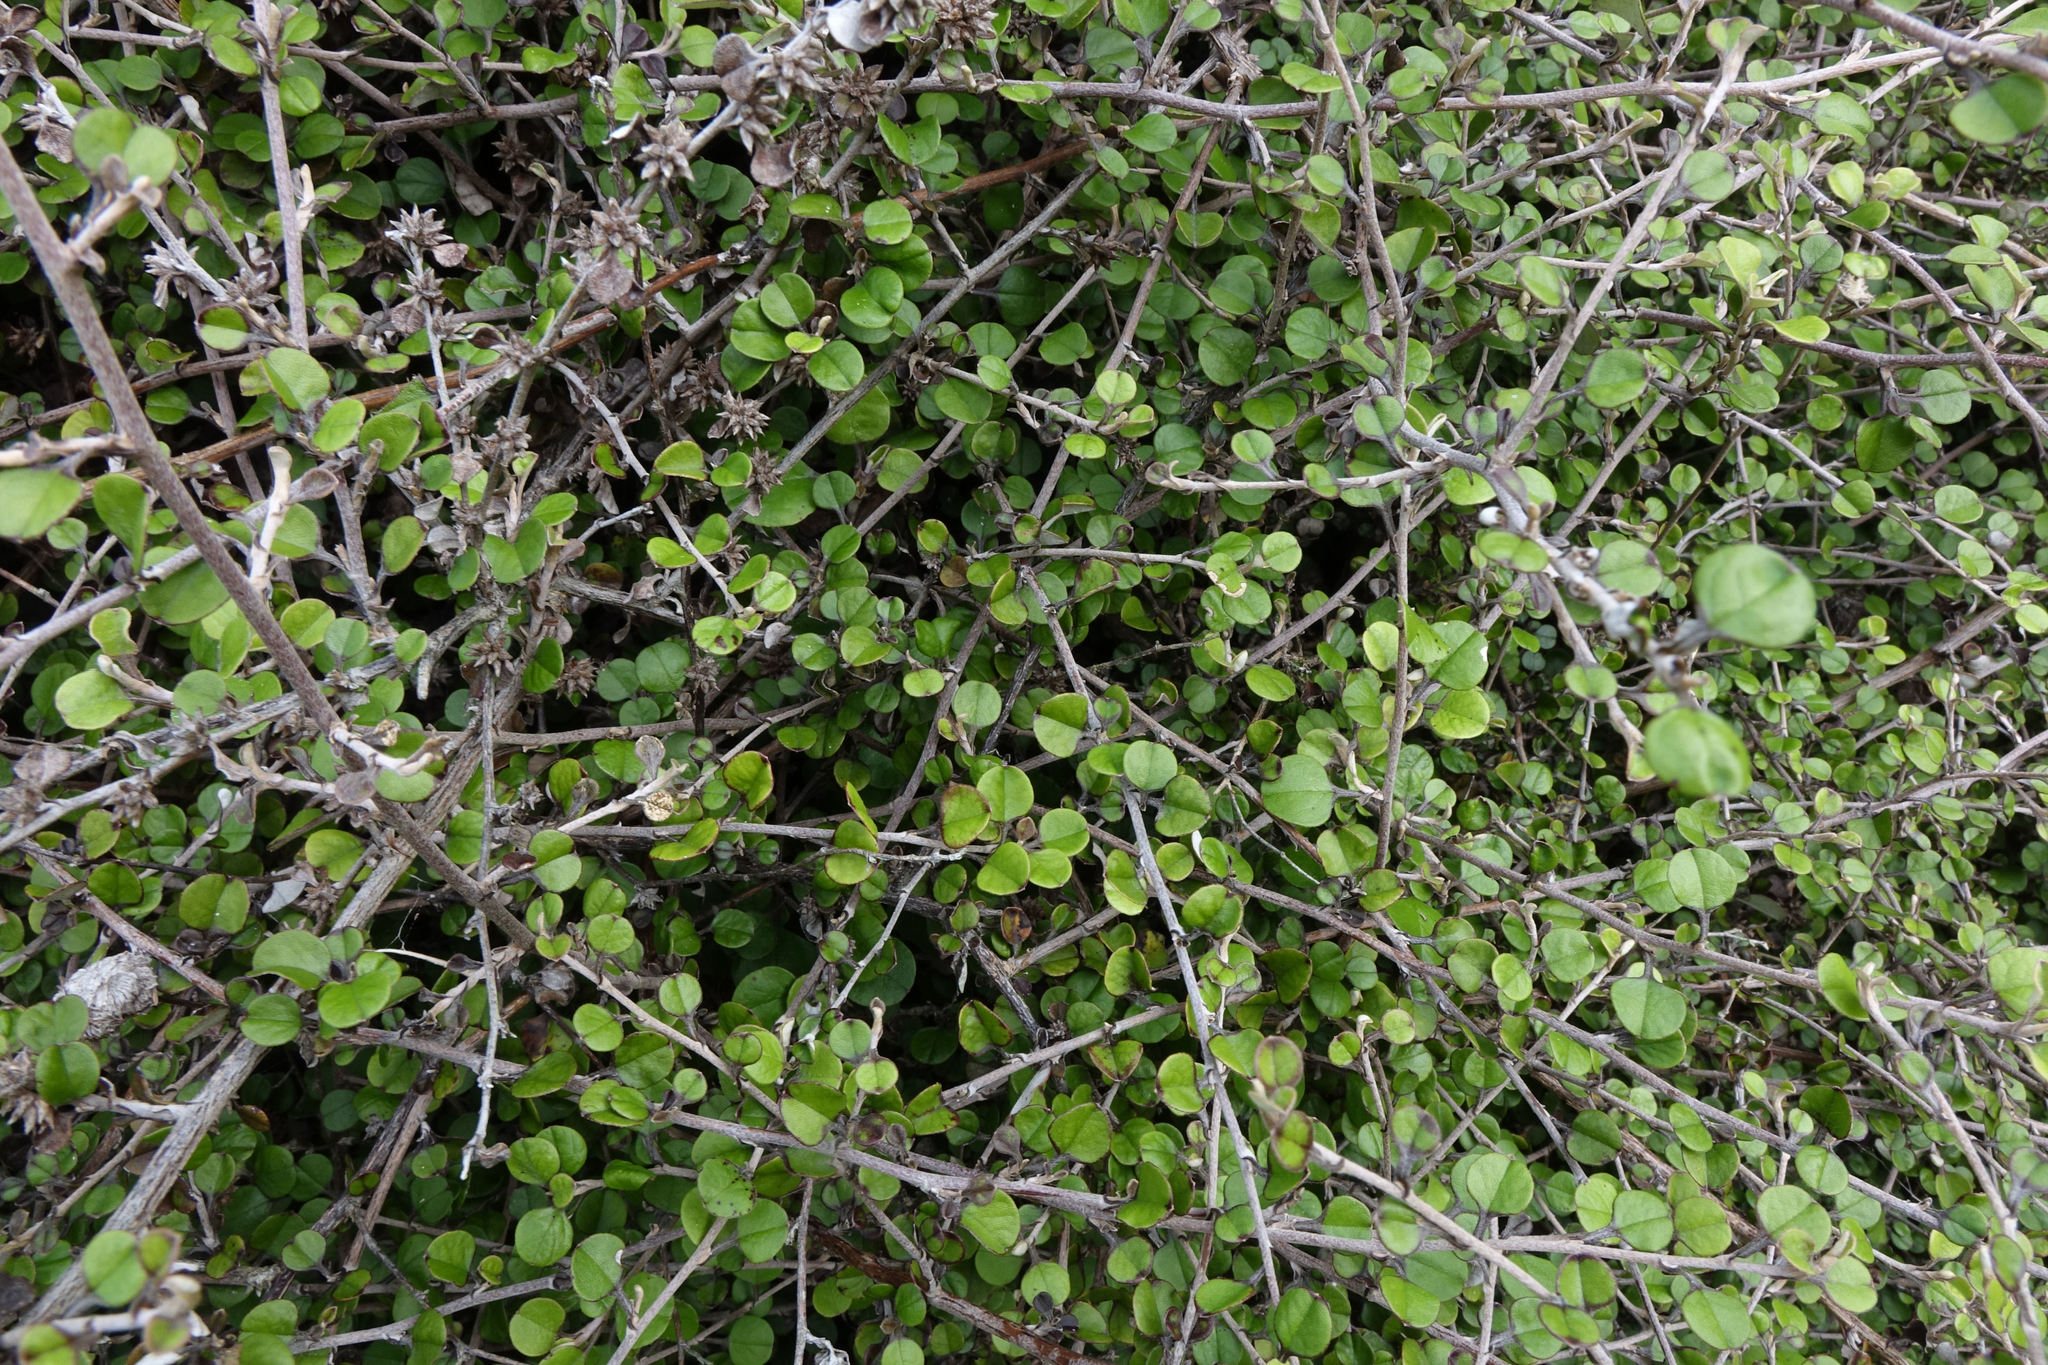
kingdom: Plantae
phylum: Tracheophyta
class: Magnoliopsida
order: Asterales
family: Asteraceae
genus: Ozothamnus
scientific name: Ozothamnus glomeratus
